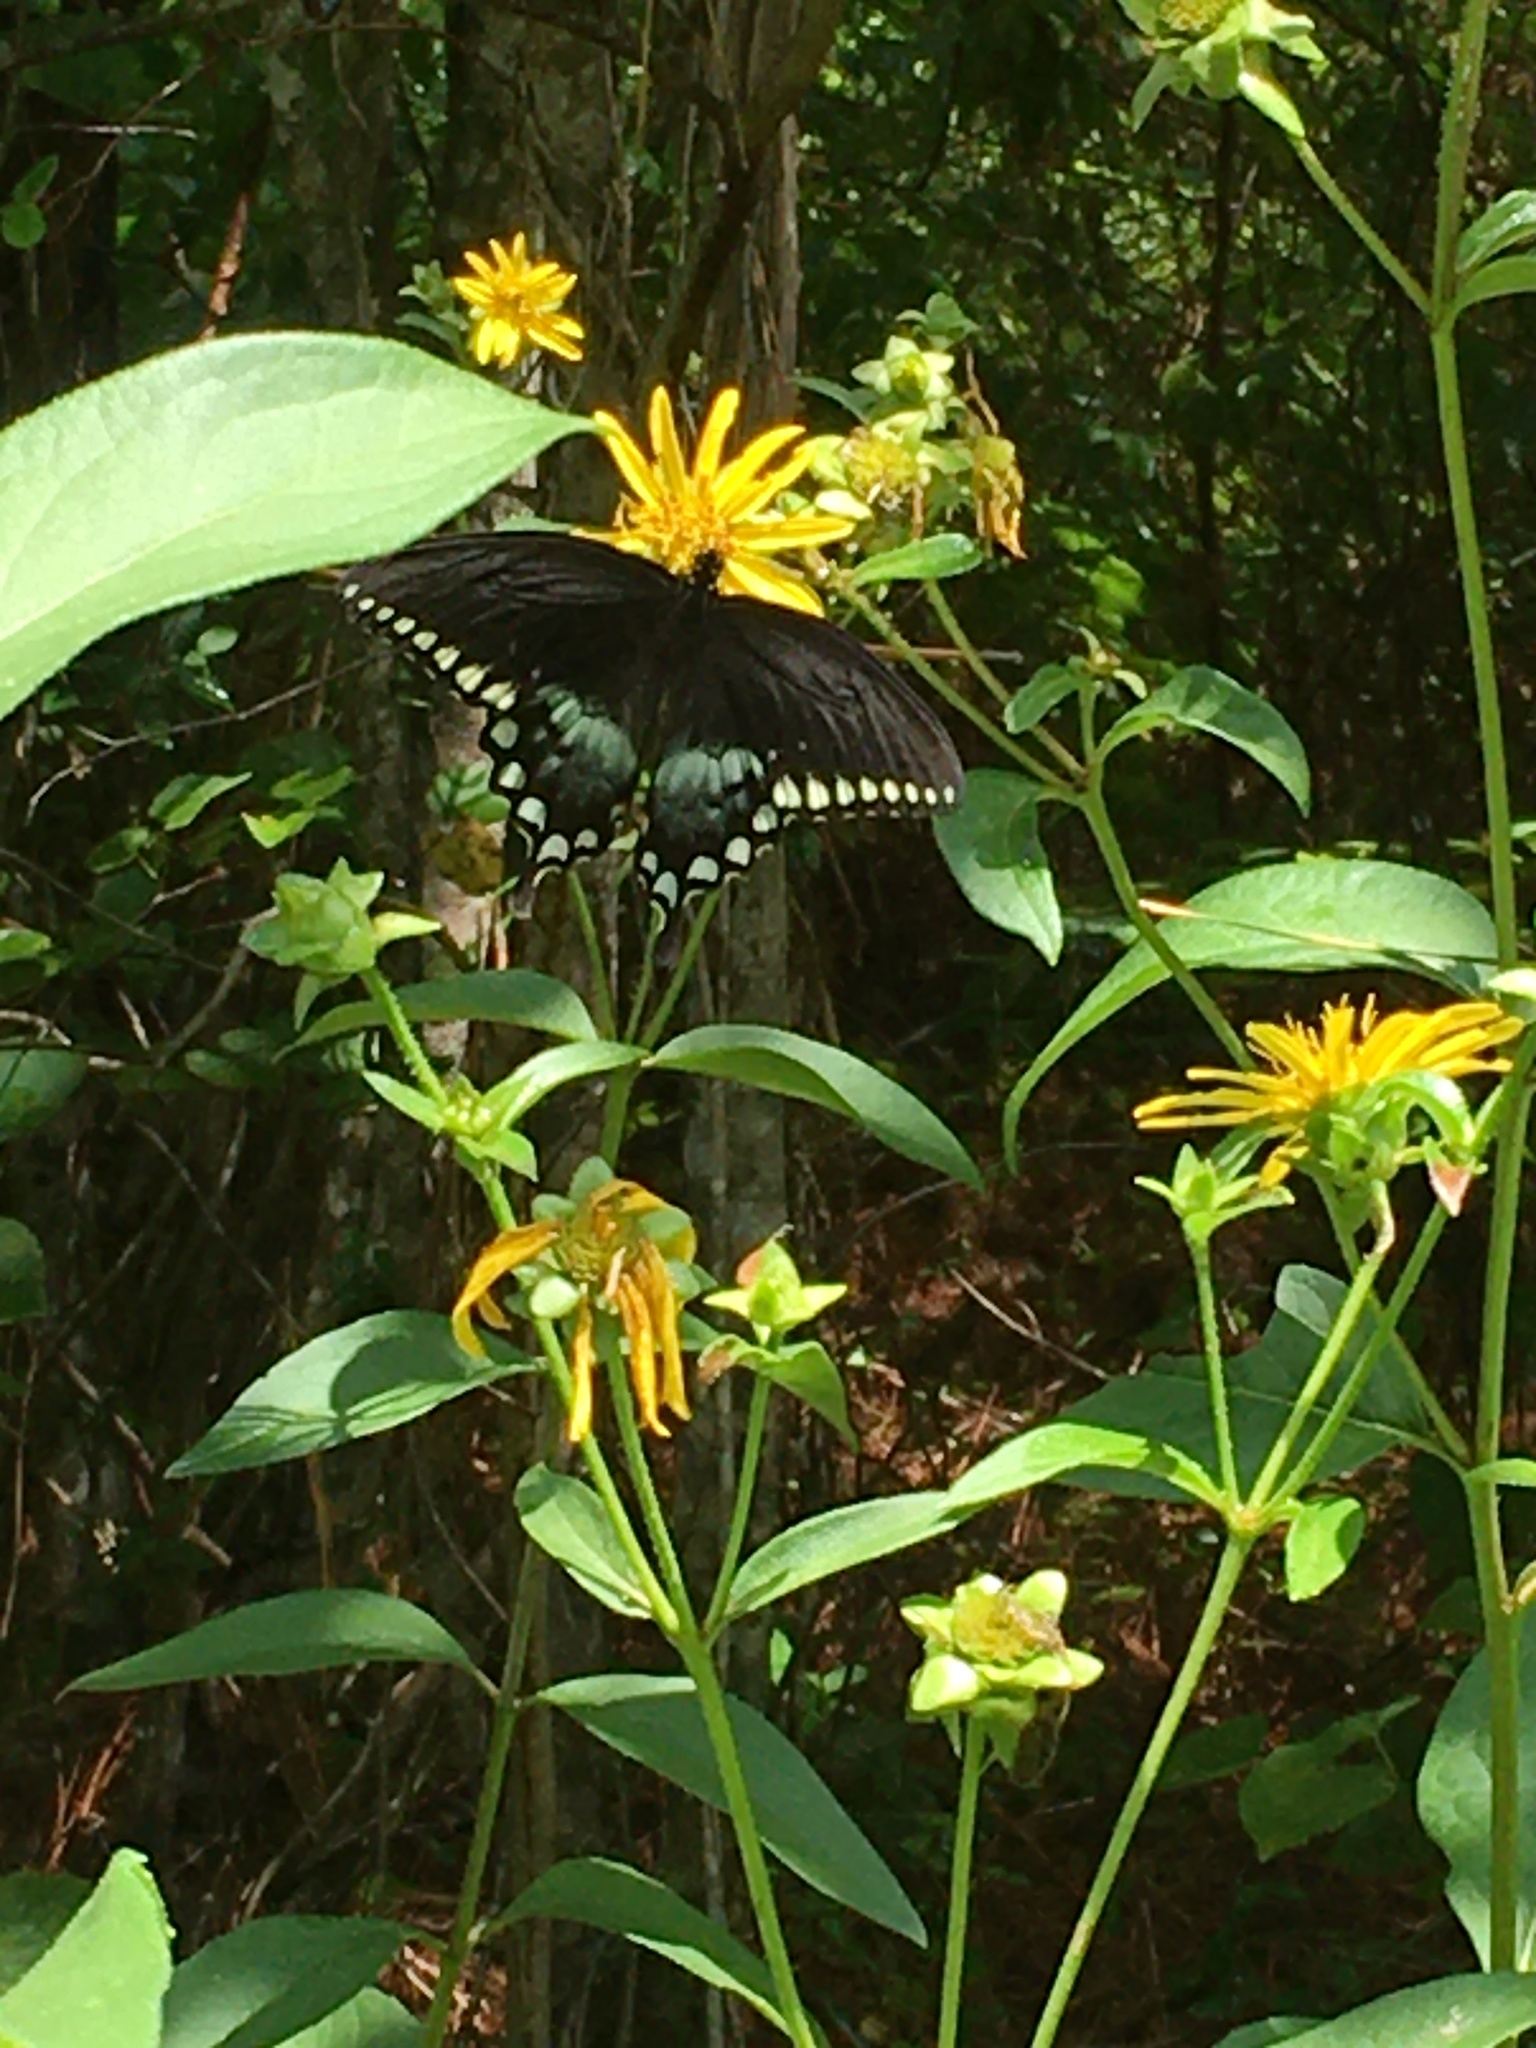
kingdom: Animalia
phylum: Arthropoda
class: Insecta
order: Lepidoptera
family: Papilionidae
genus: Papilio
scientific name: Papilio troilus
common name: Spicebush swallowtail
